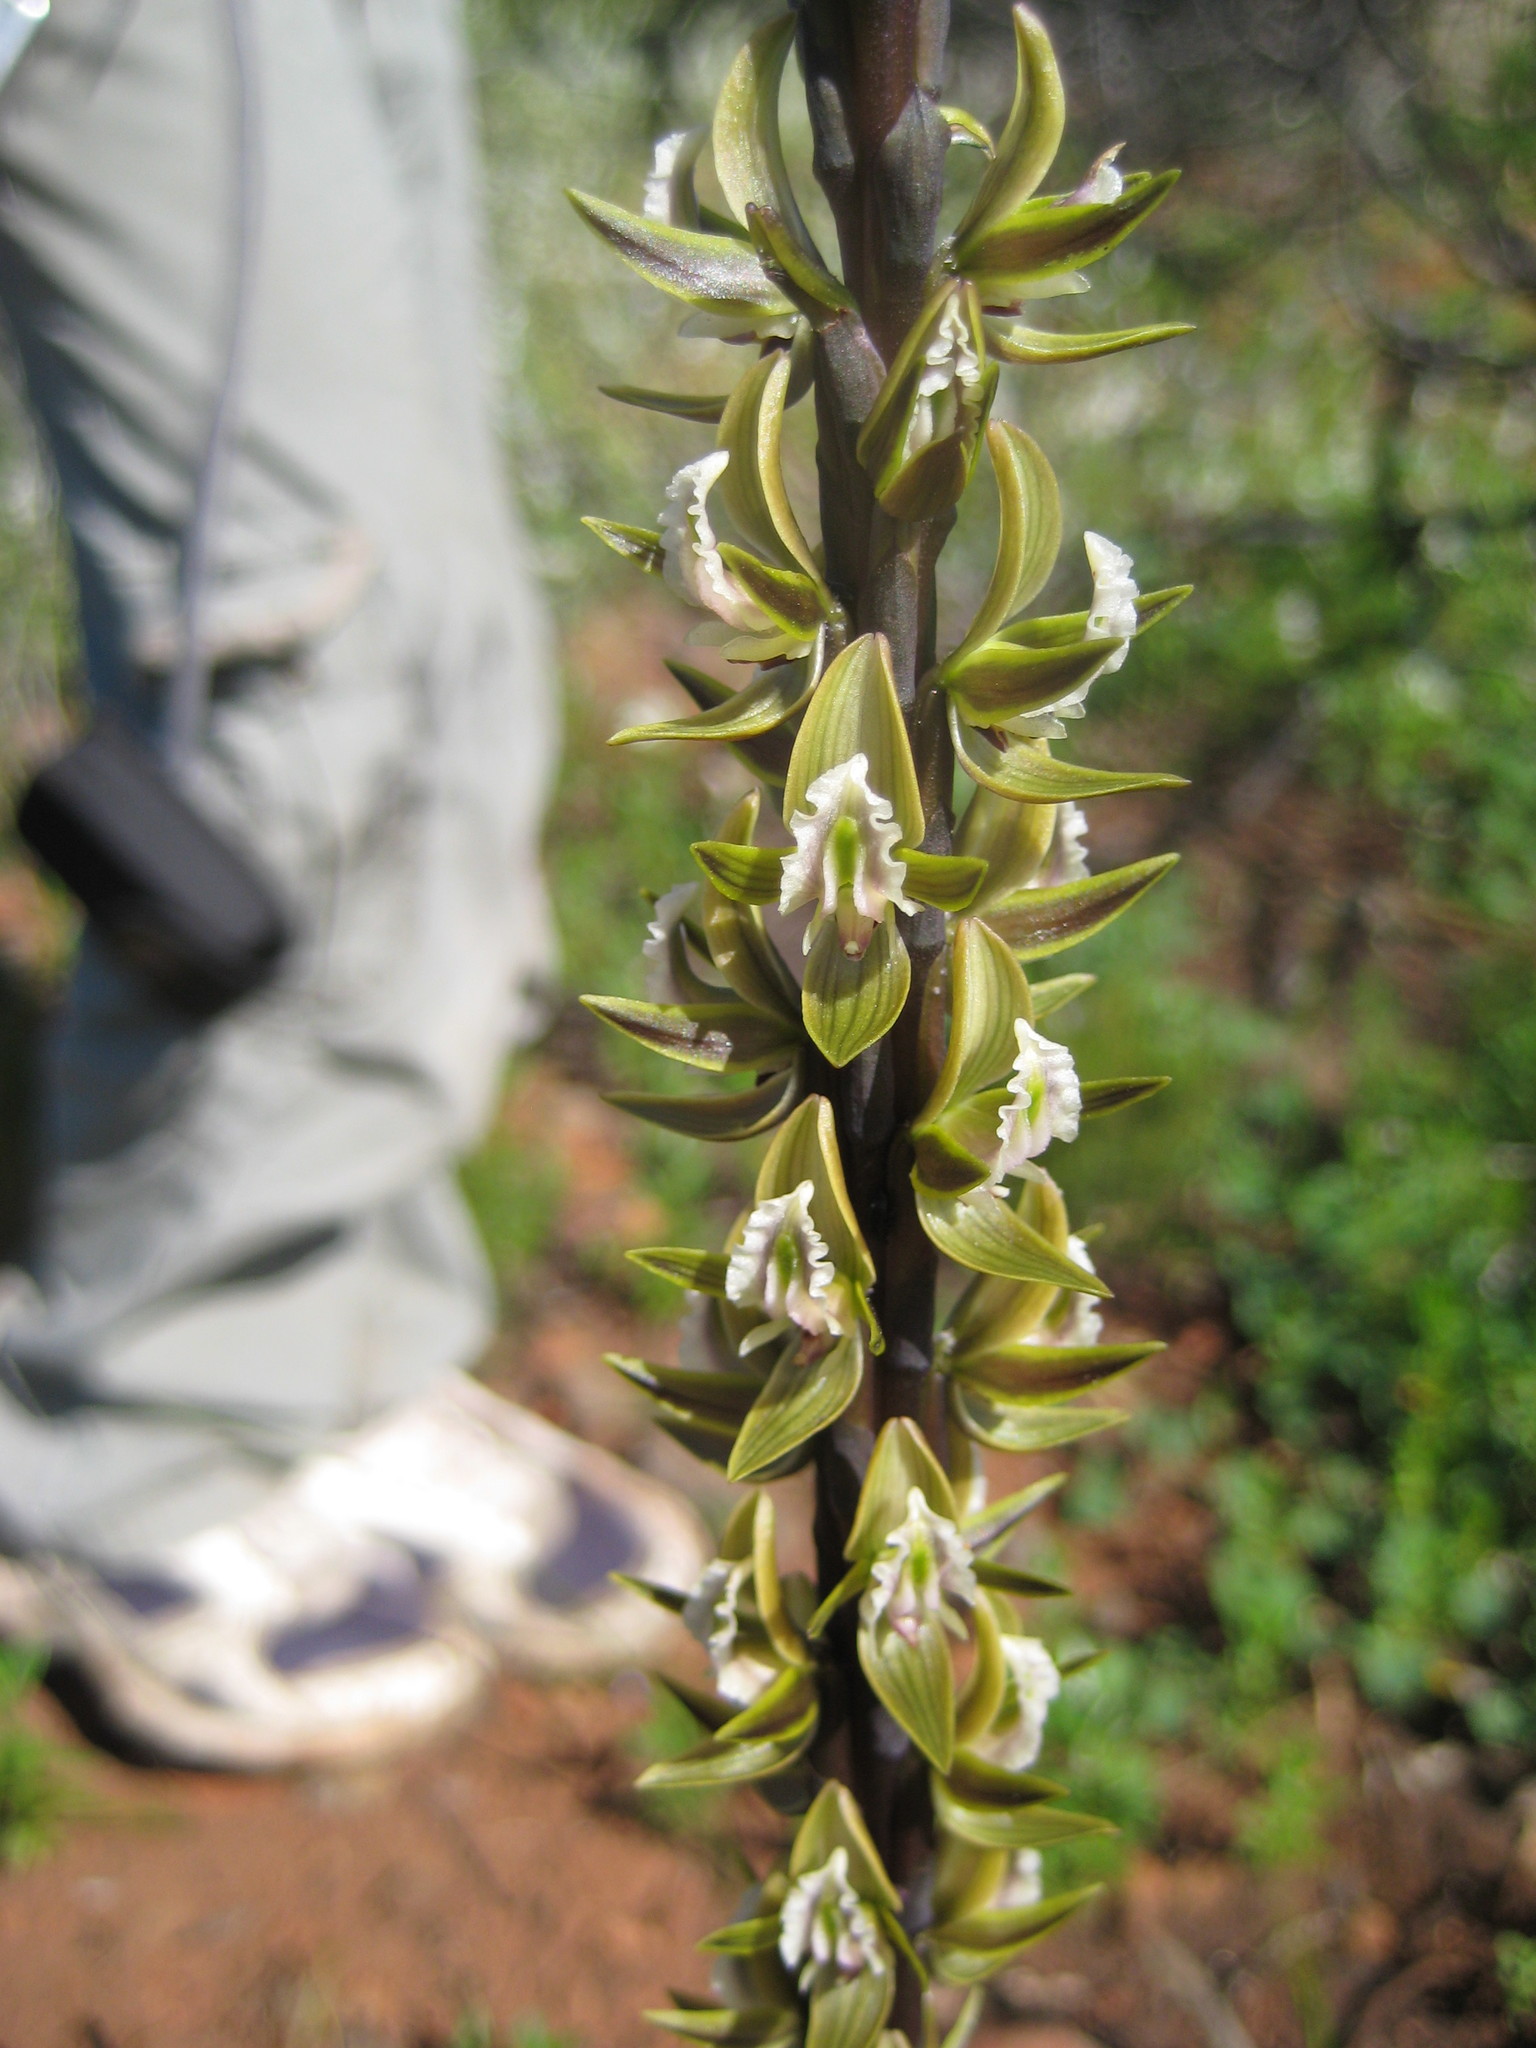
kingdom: Plantae
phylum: Tracheophyta
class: Liliopsida
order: Asparagales
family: Orchidaceae
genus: Prasophyllum
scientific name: Prasophyllum elatum
